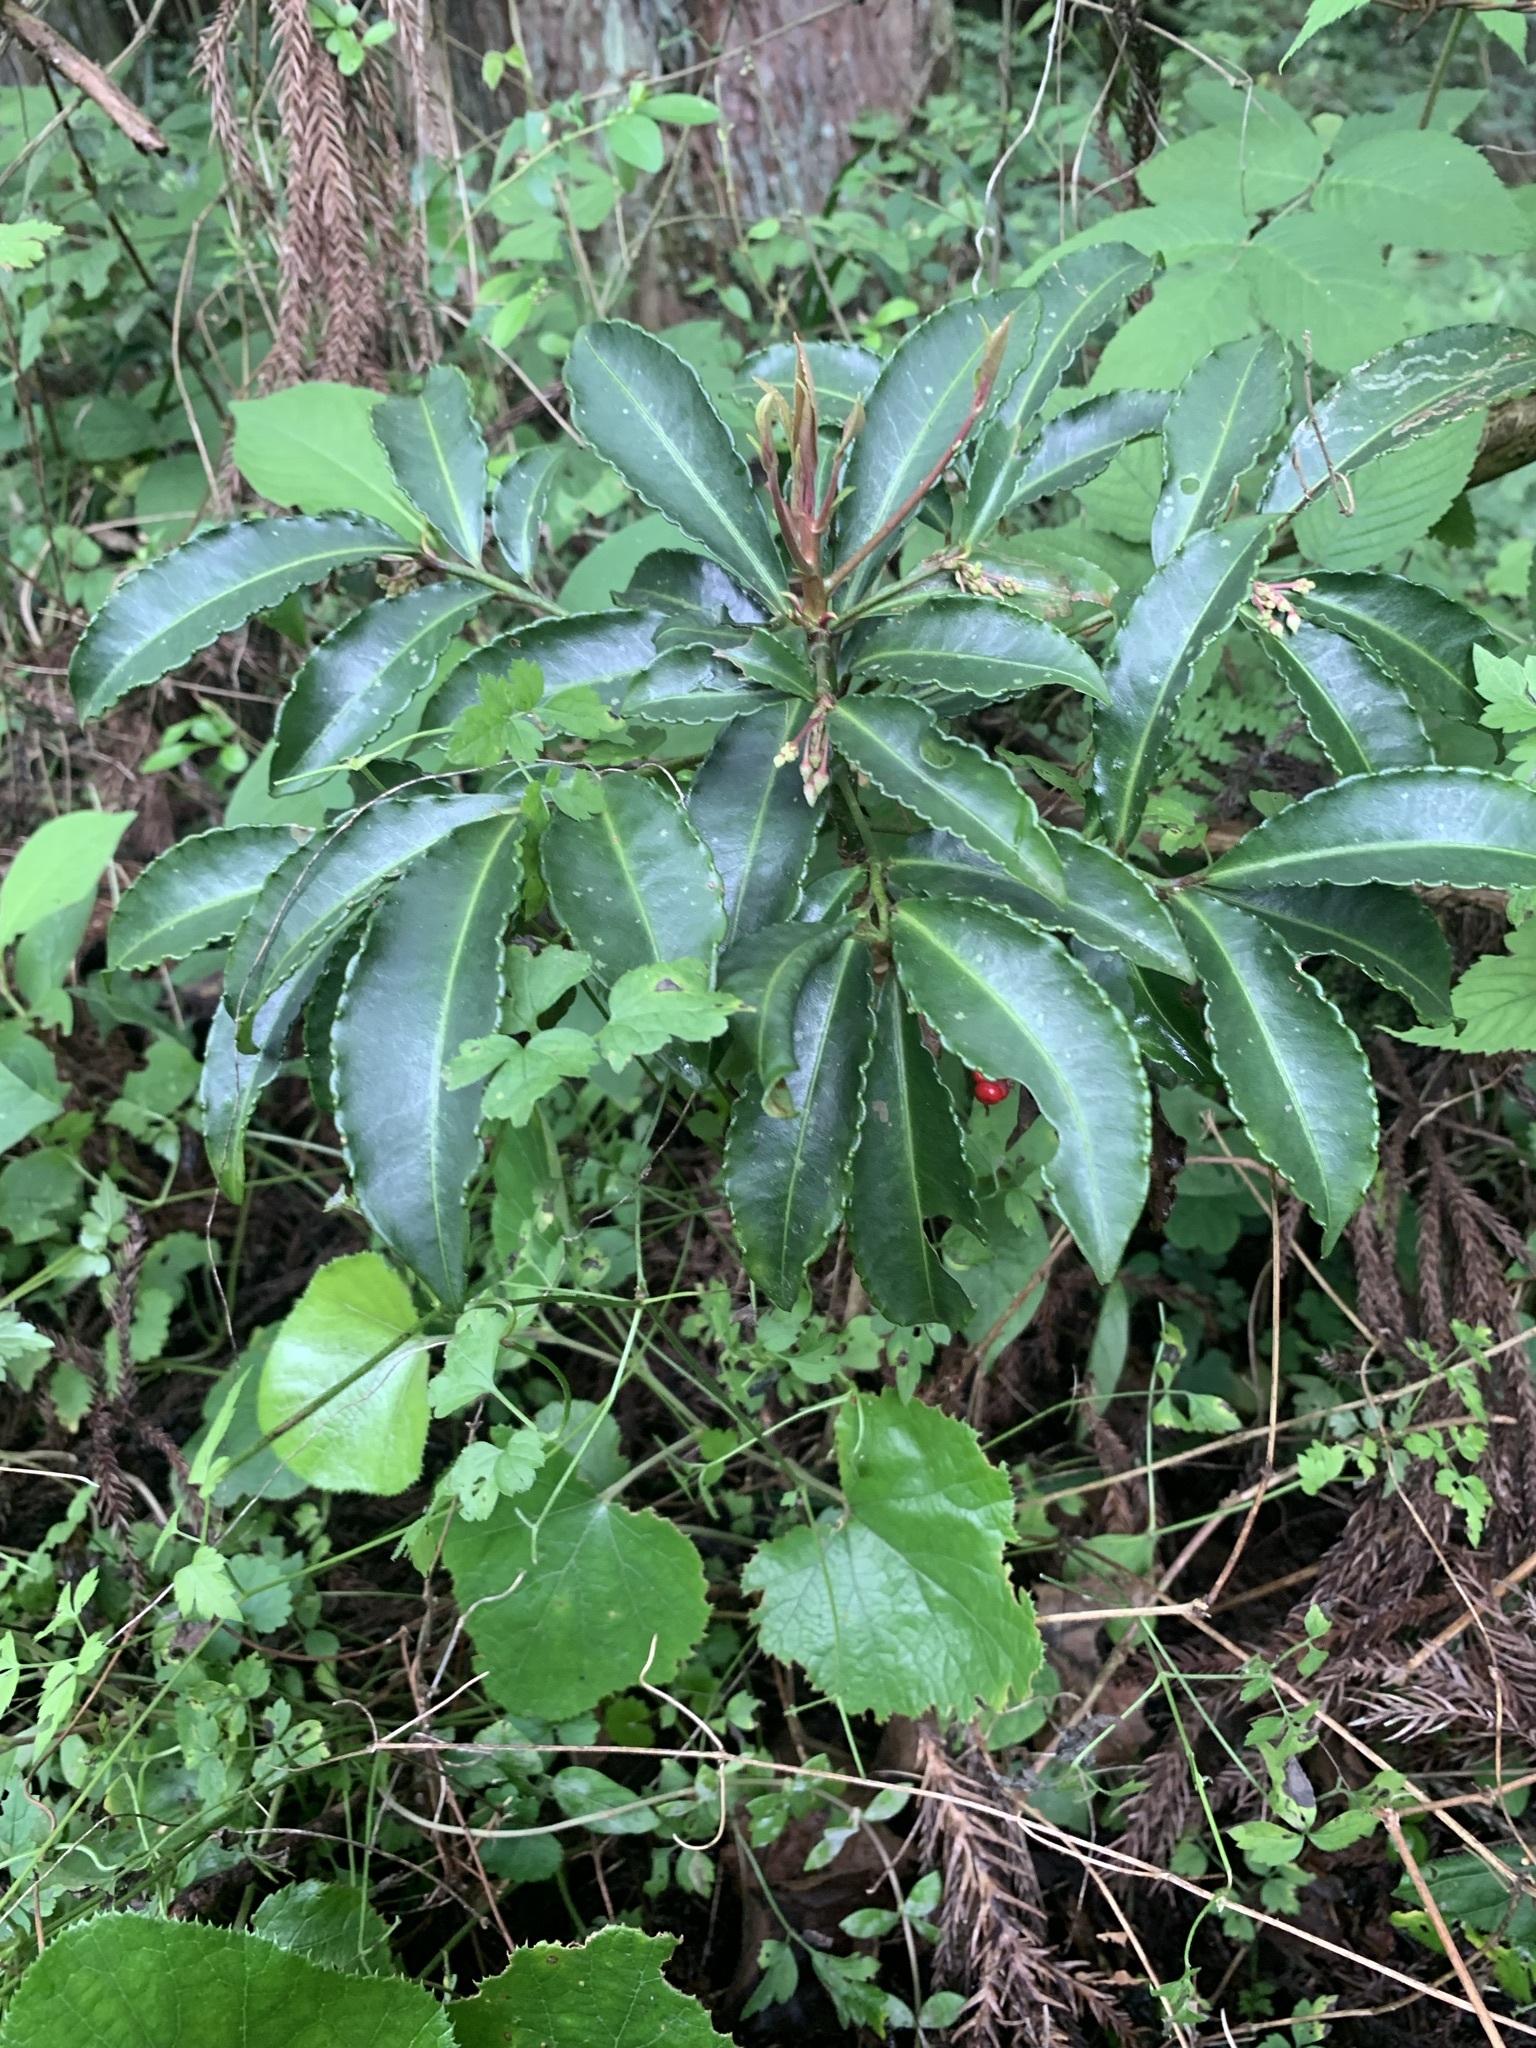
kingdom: Plantae
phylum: Tracheophyta
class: Magnoliopsida
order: Ericales
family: Primulaceae
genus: Ardisia
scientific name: Ardisia crenata
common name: Hen's eyes
